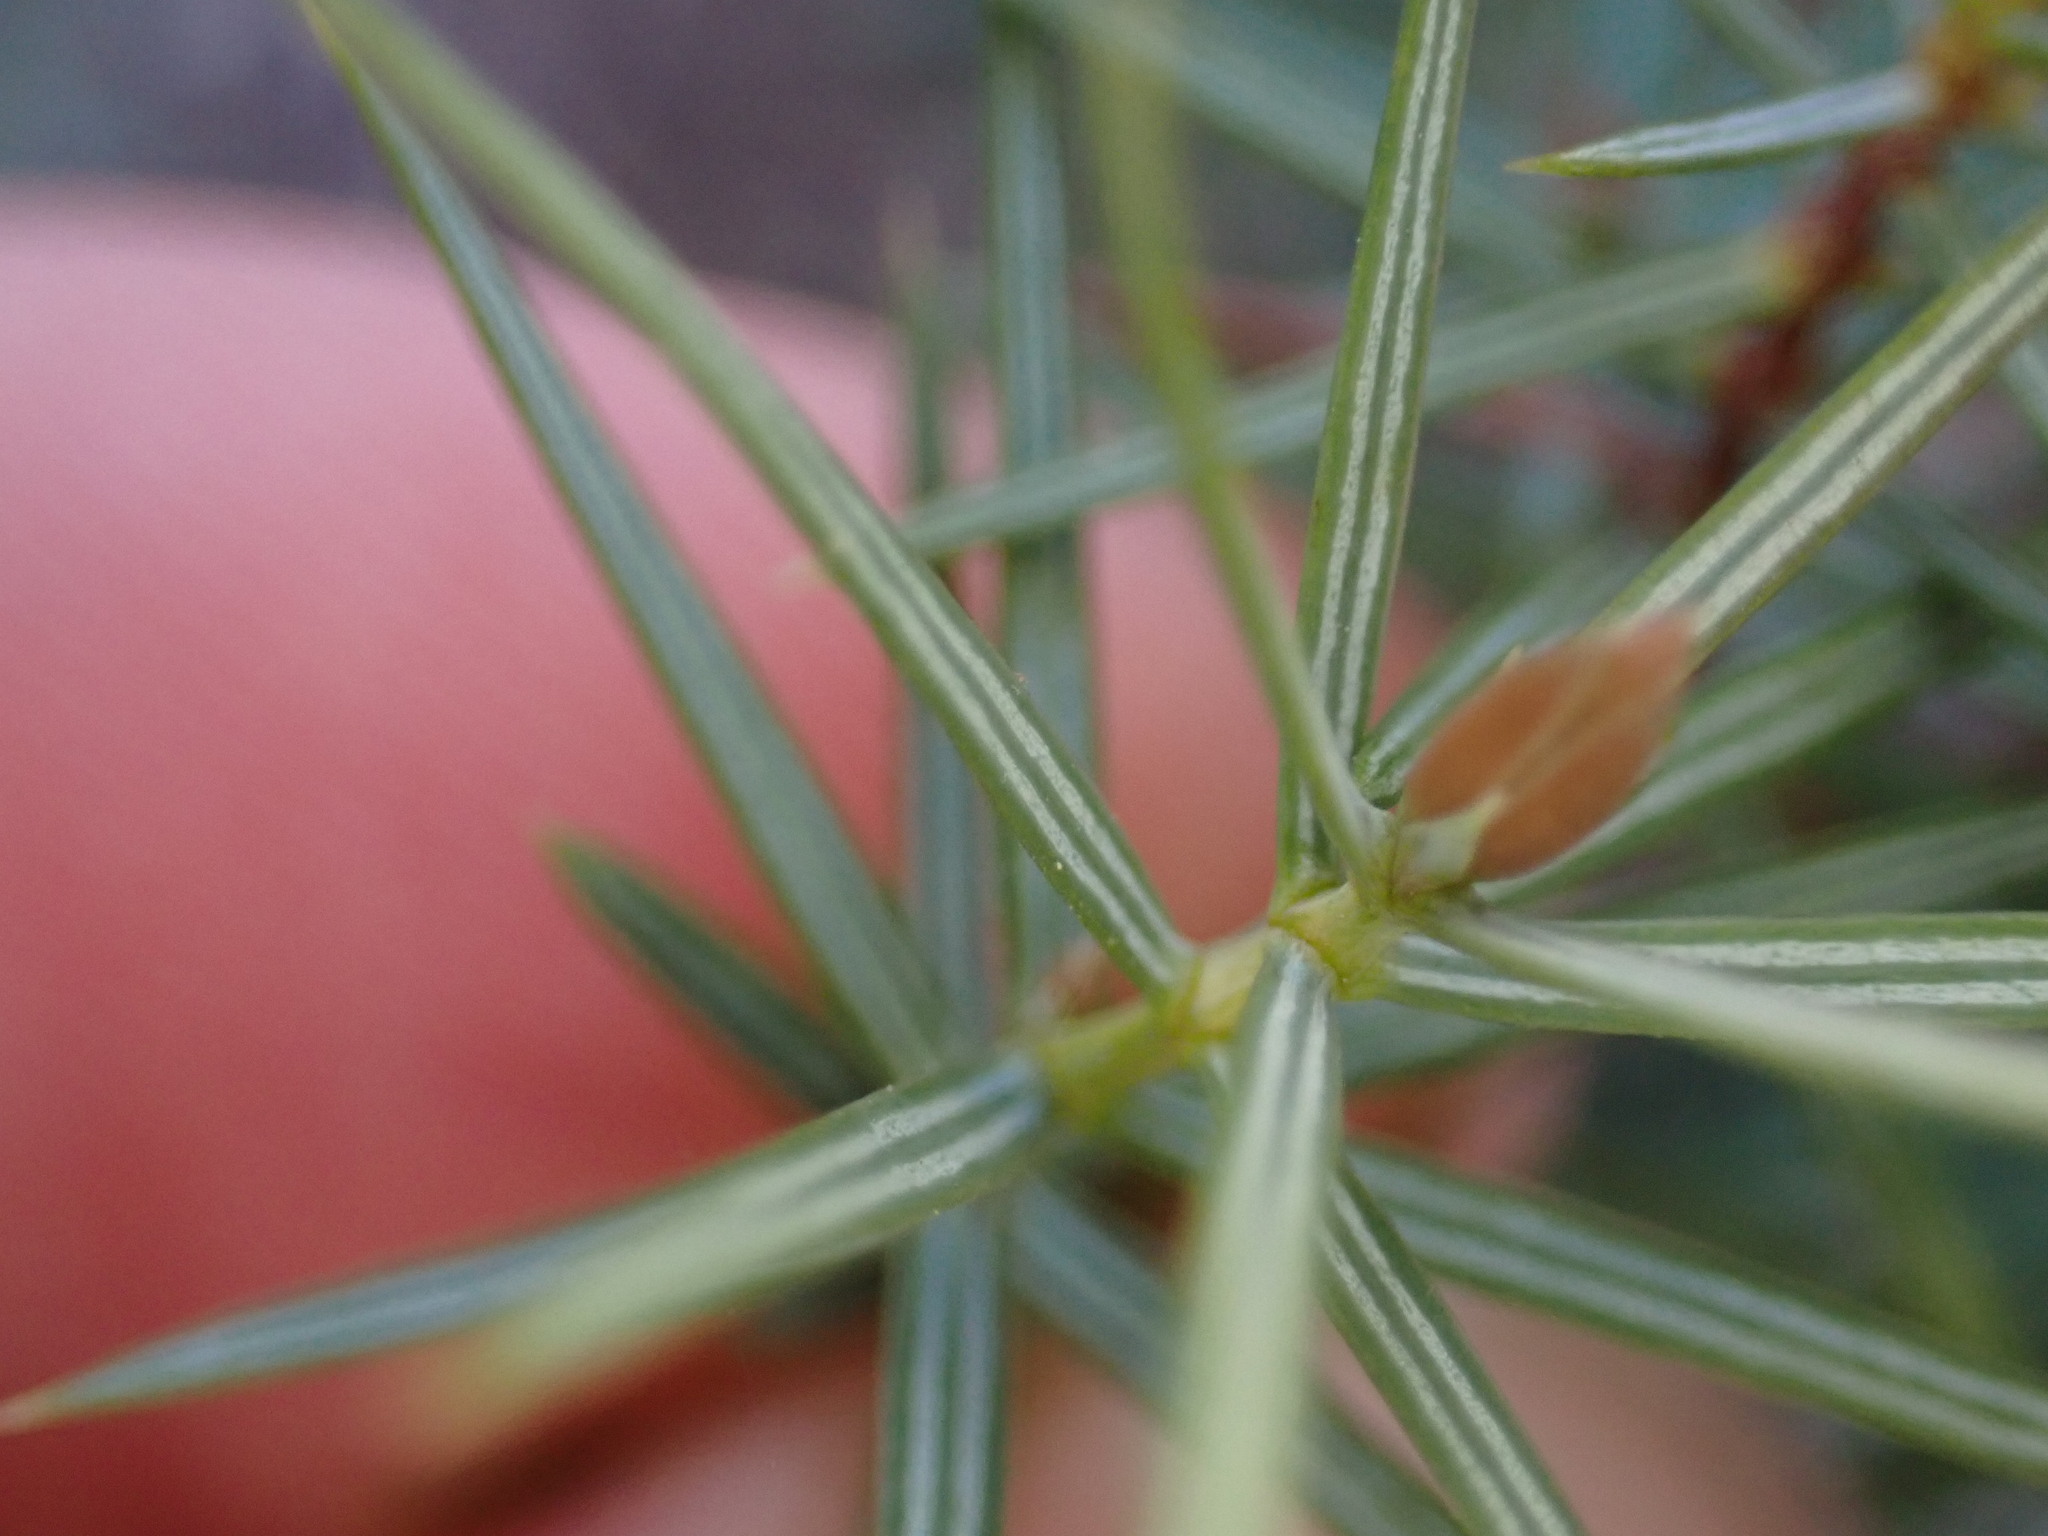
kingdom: Plantae
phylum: Tracheophyta
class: Pinopsida
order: Pinales
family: Cupressaceae
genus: Juniperus
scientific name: Juniperus oxycedrus
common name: Prickly juniper
